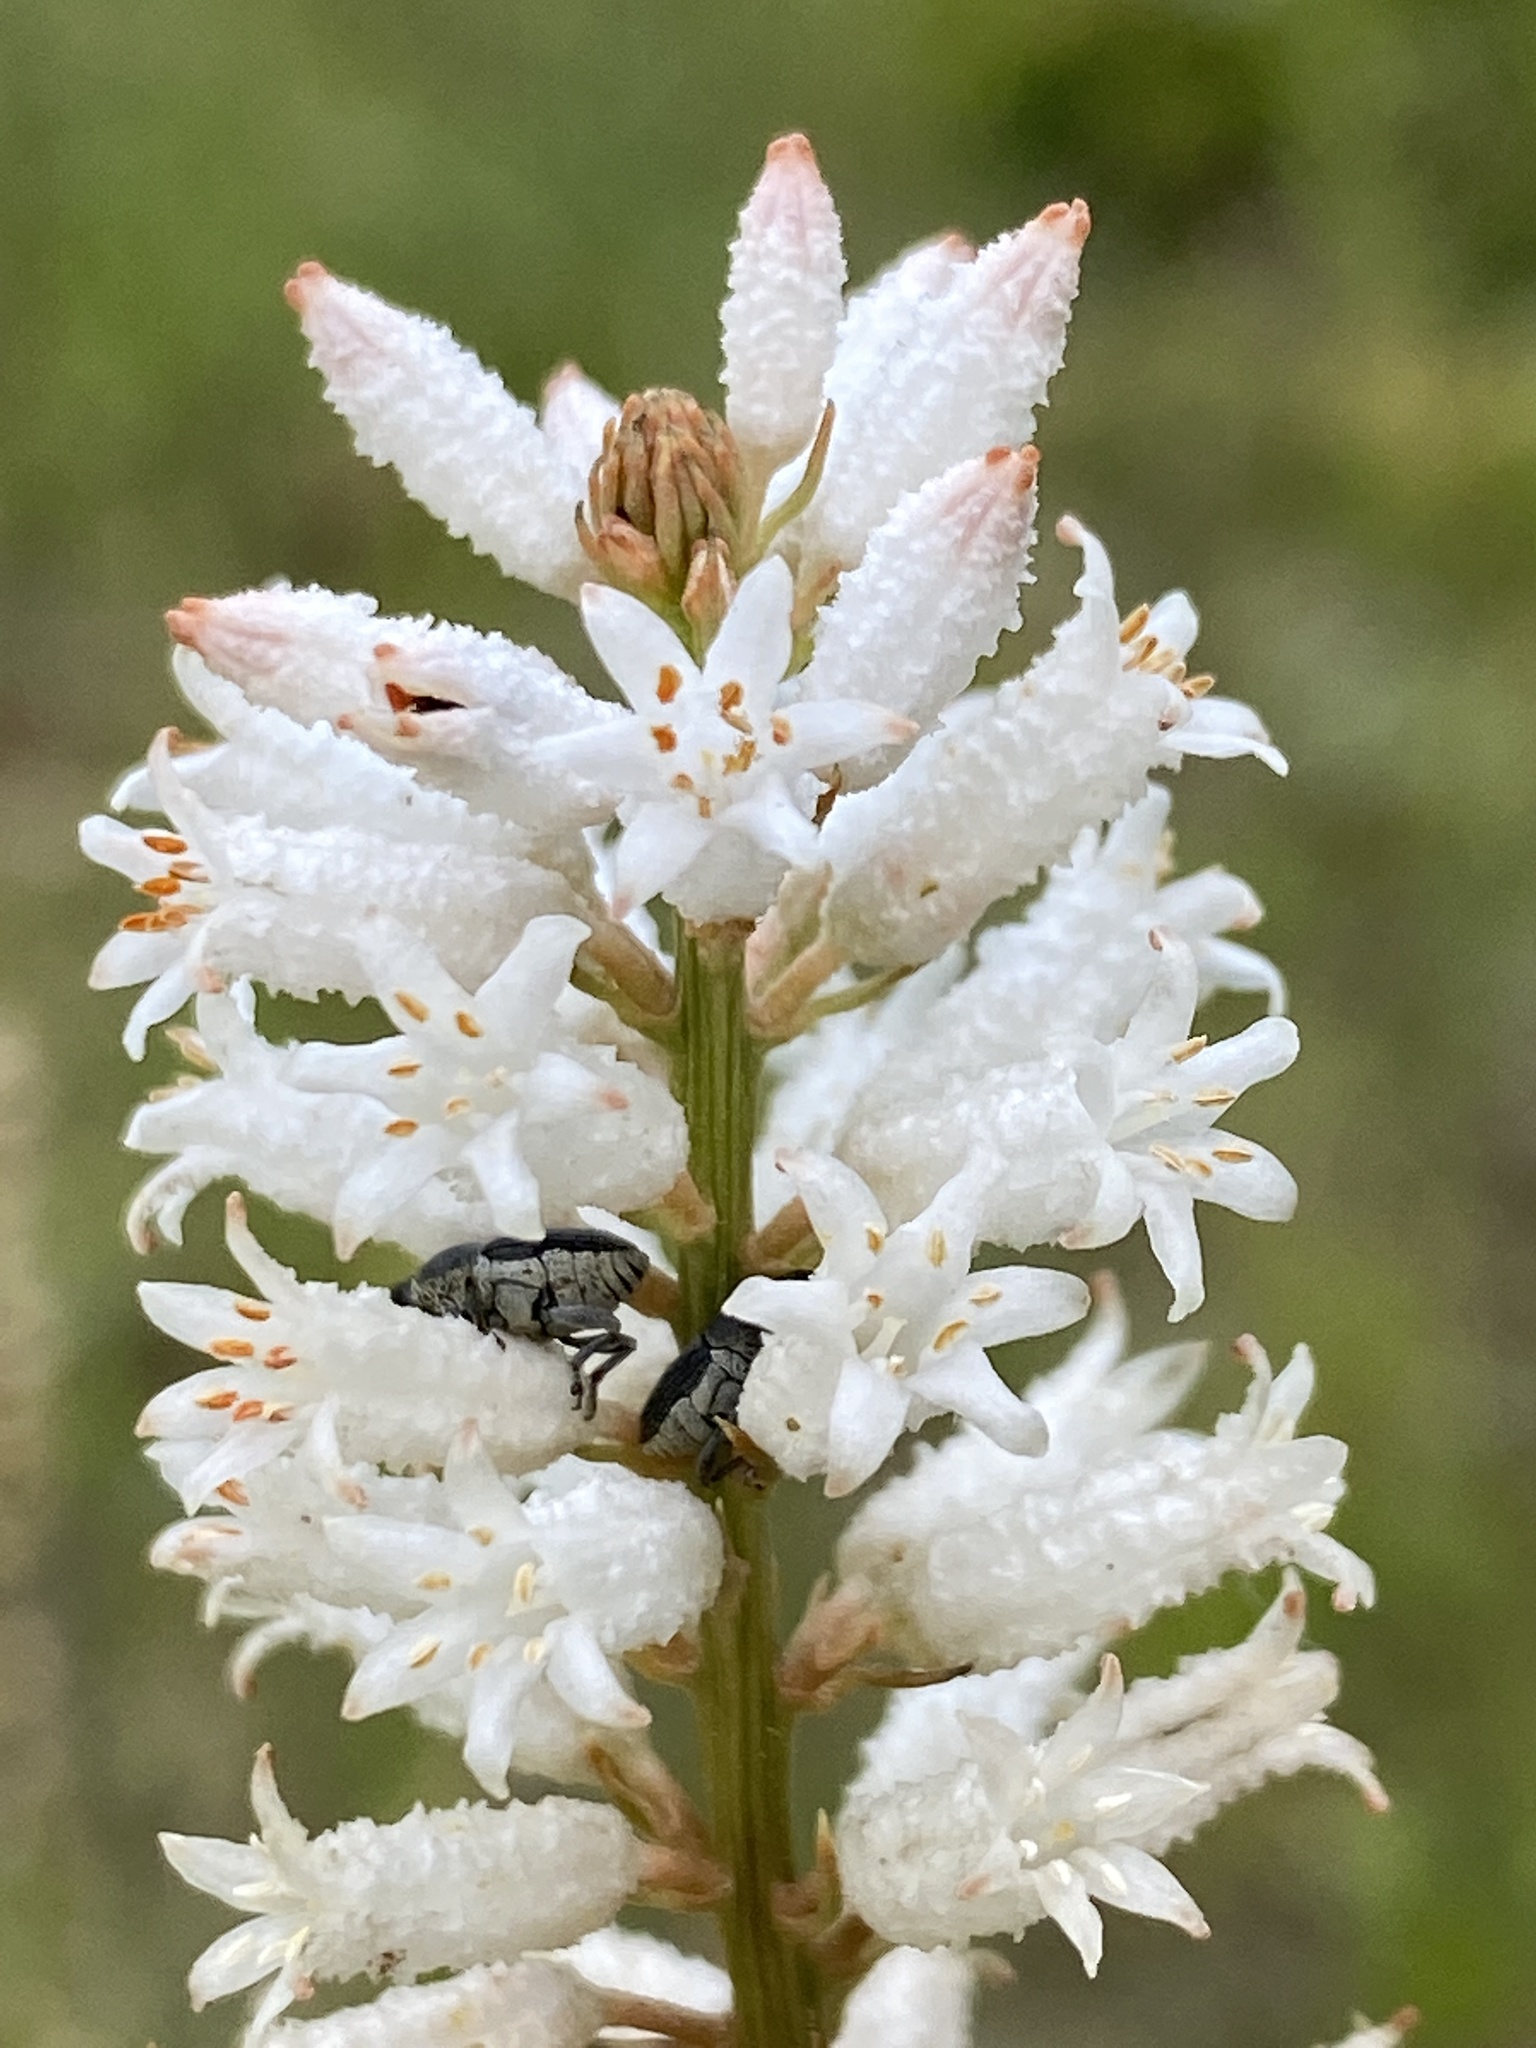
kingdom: Plantae
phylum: Tracheophyta
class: Liliopsida
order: Dioscoreales
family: Nartheciaceae
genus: Aletris
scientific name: Aletris farinosa
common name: Colicroot
